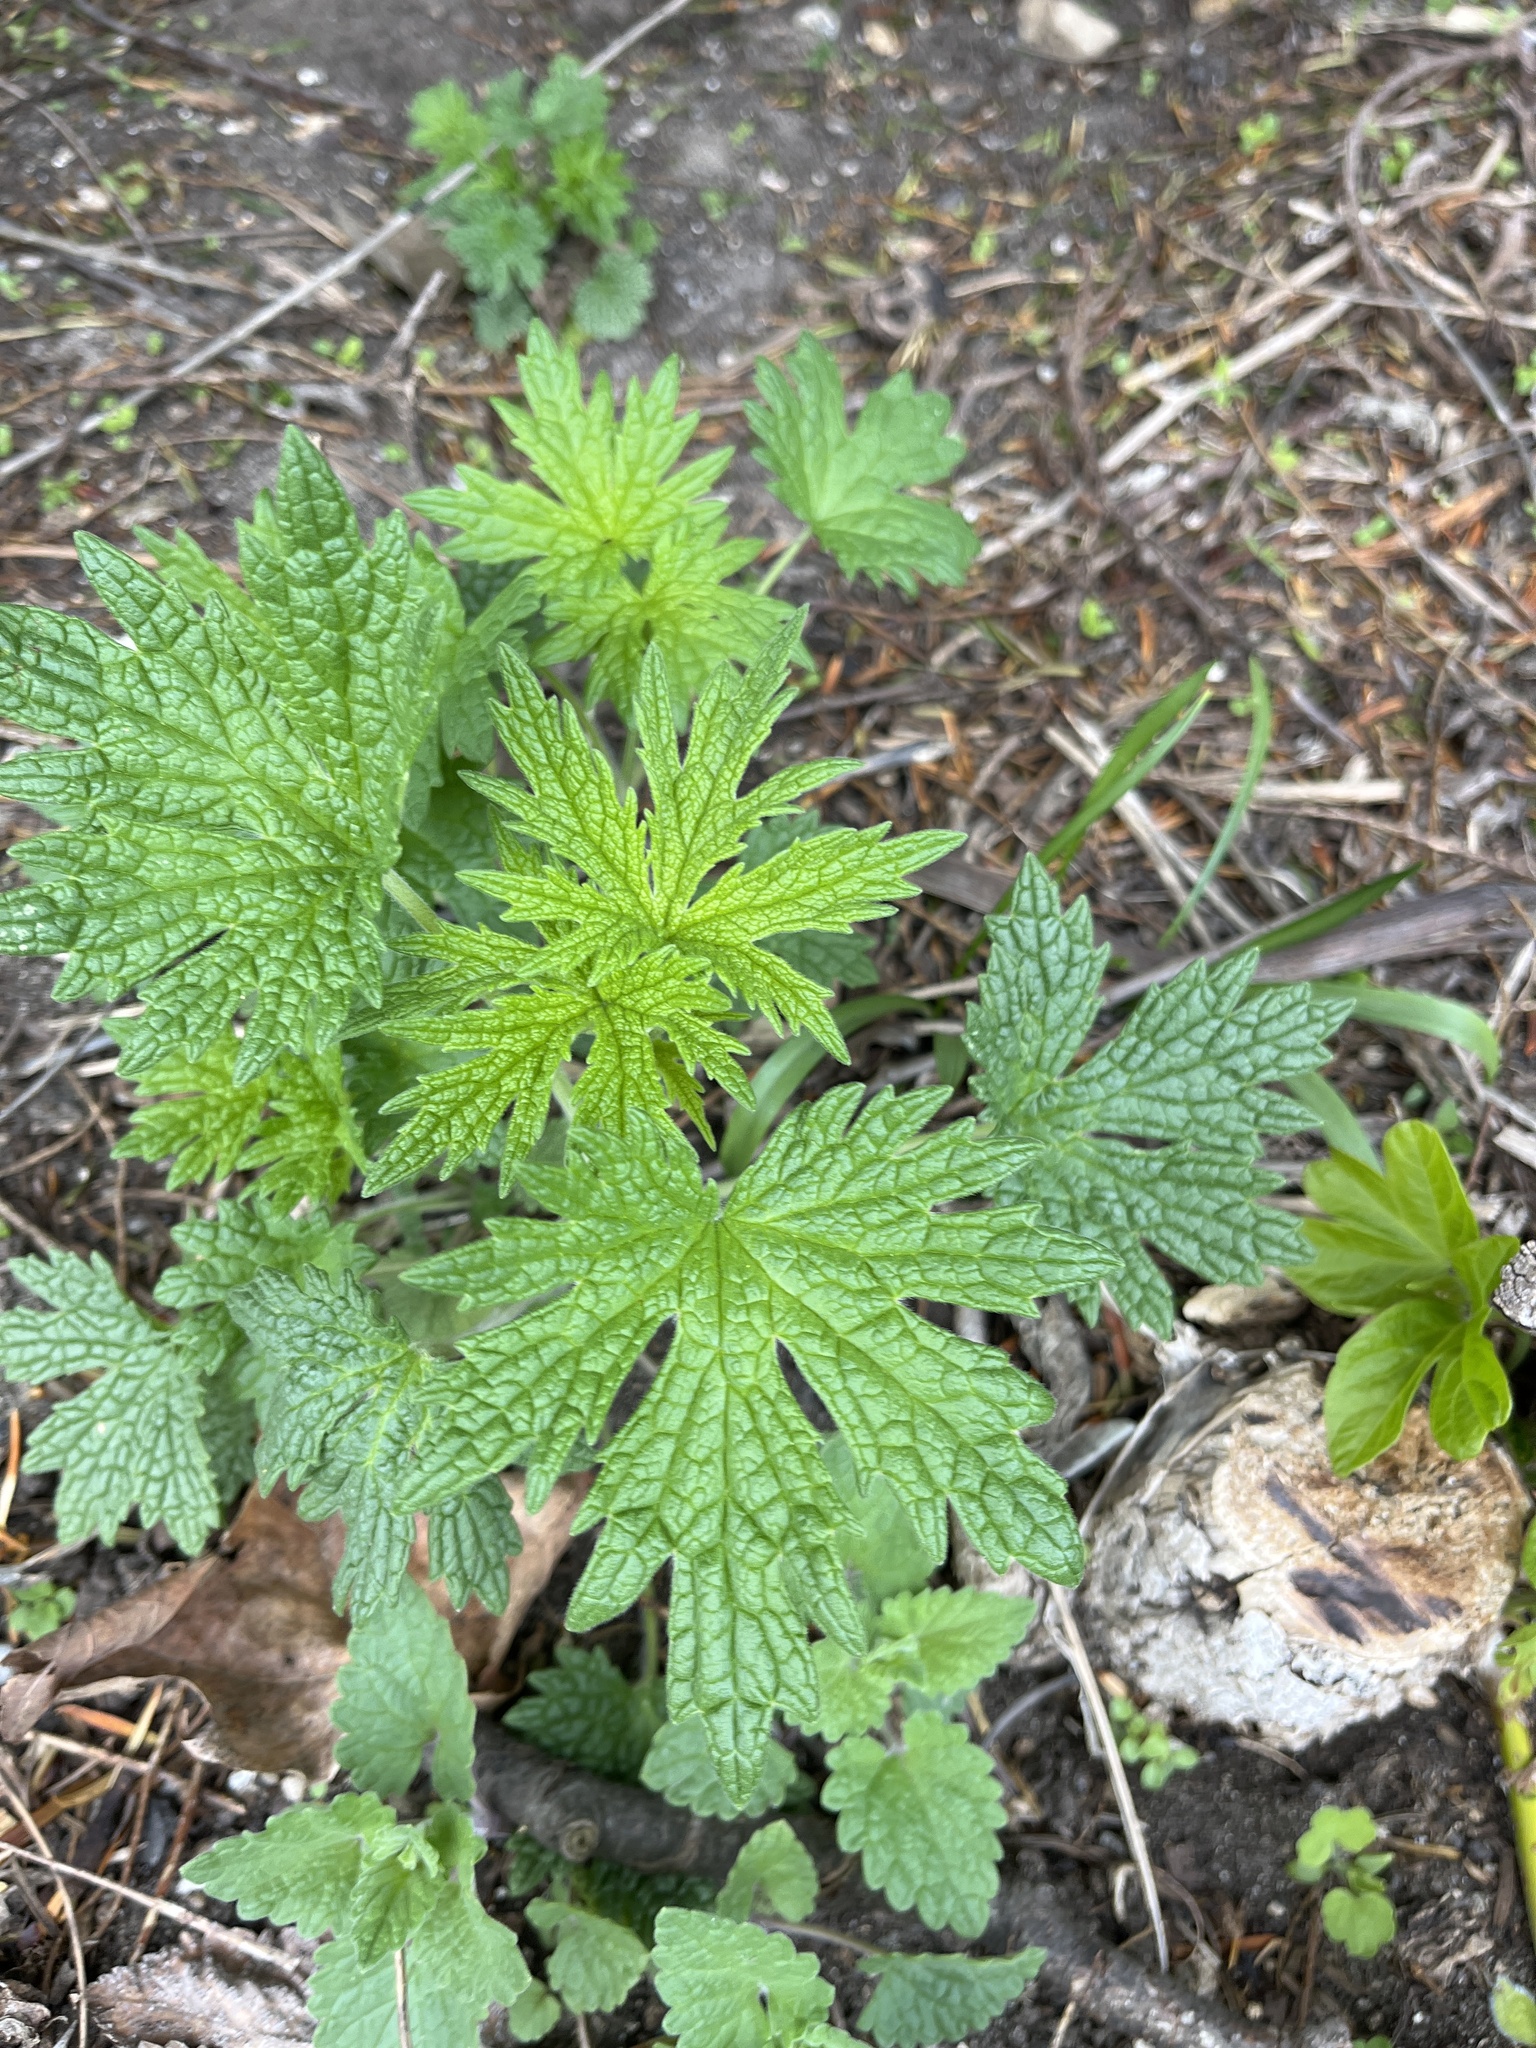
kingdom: Plantae
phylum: Tracheophyta
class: Magnoliopsida
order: Lamiales
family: Lamiaceae
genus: Leonurus
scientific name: Leonurus cardiaca
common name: Motherwort
